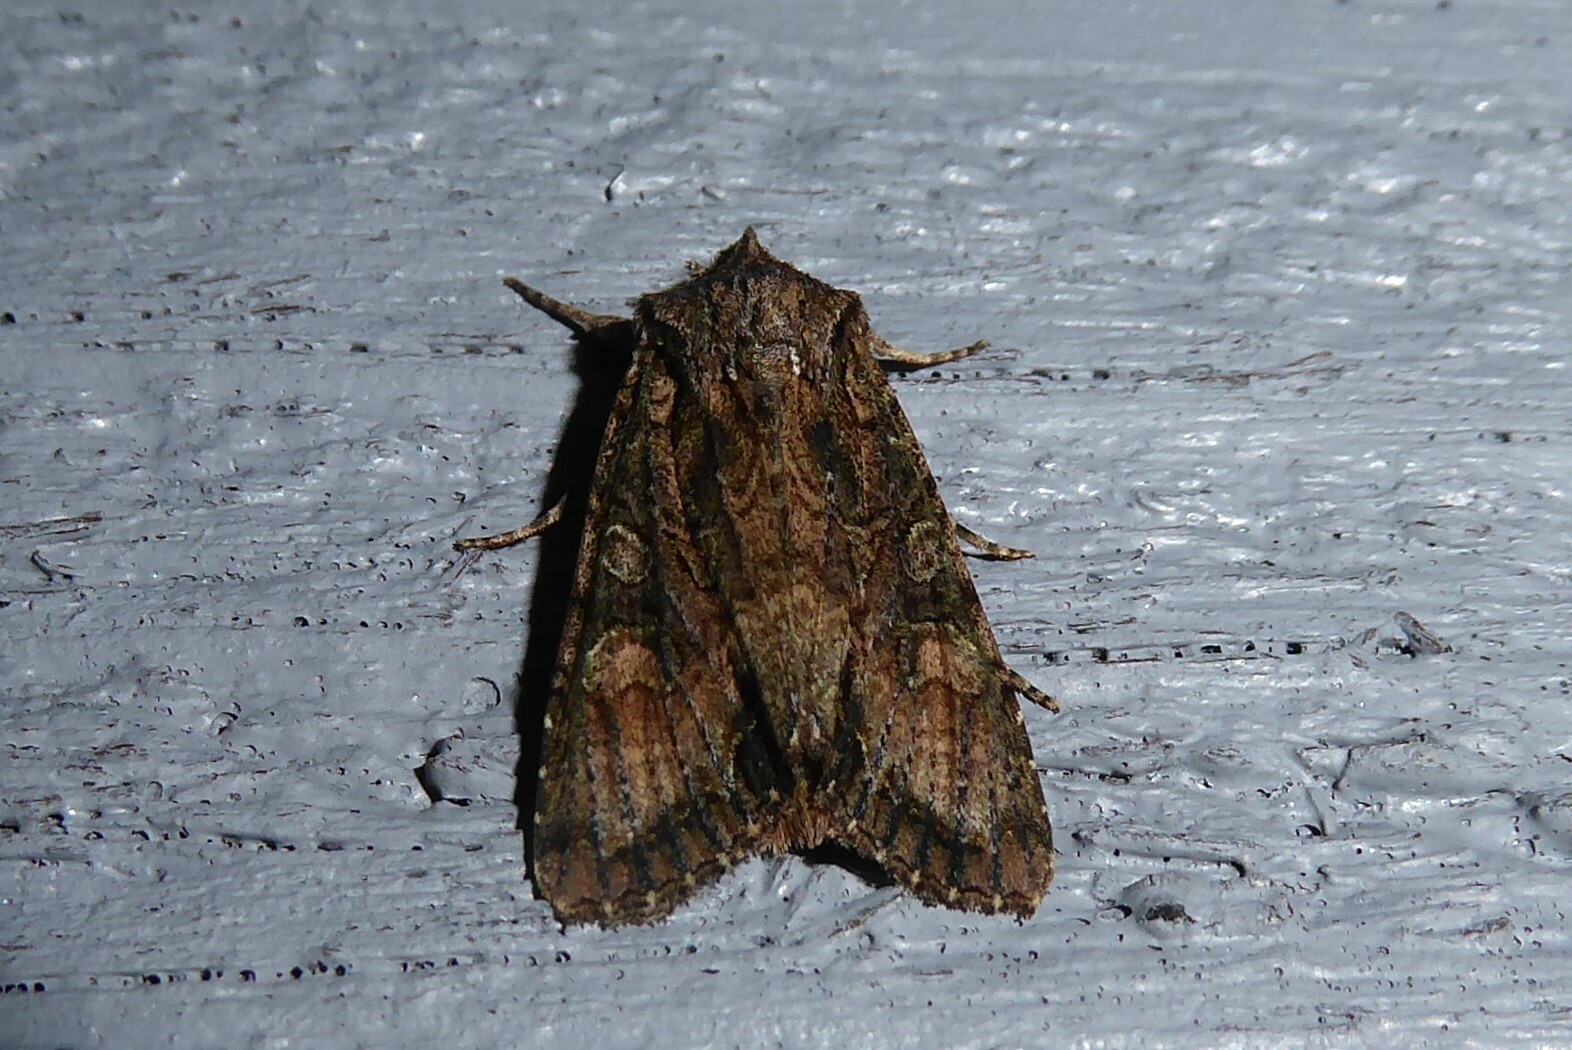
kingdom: Animalia
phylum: Arthropoda
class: Insecta
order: Lepidoptera
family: Noctuidae
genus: Ichneutica
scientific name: Ichneutica mutans
